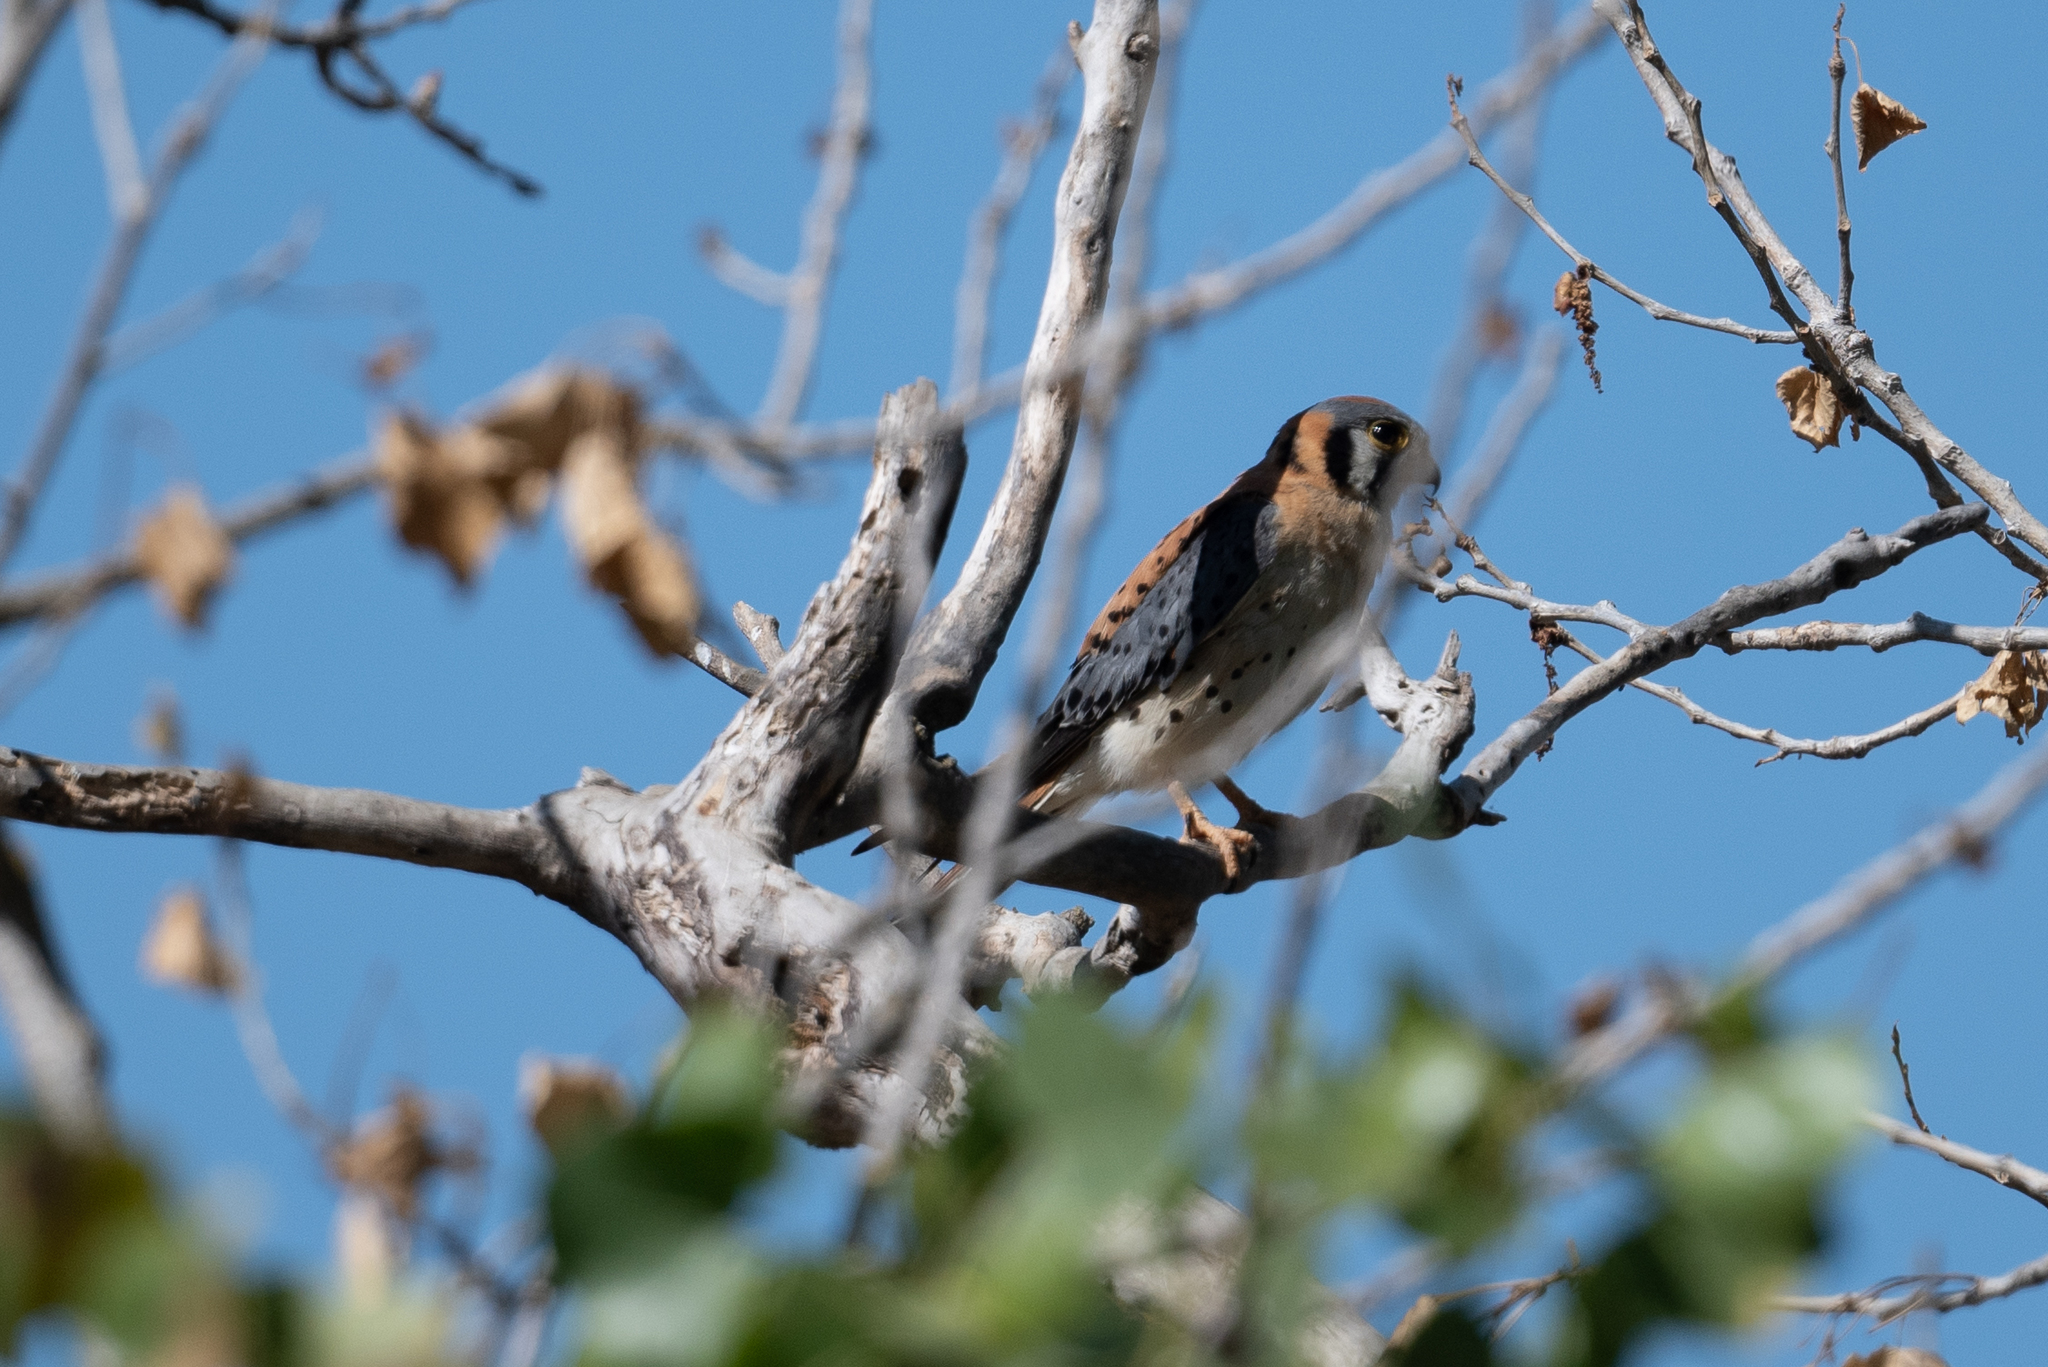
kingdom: Animalia
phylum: Chordata
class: Aves
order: Falconiformes
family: Falconidae
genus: Falco
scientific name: Falco sparverius
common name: American kestrel
